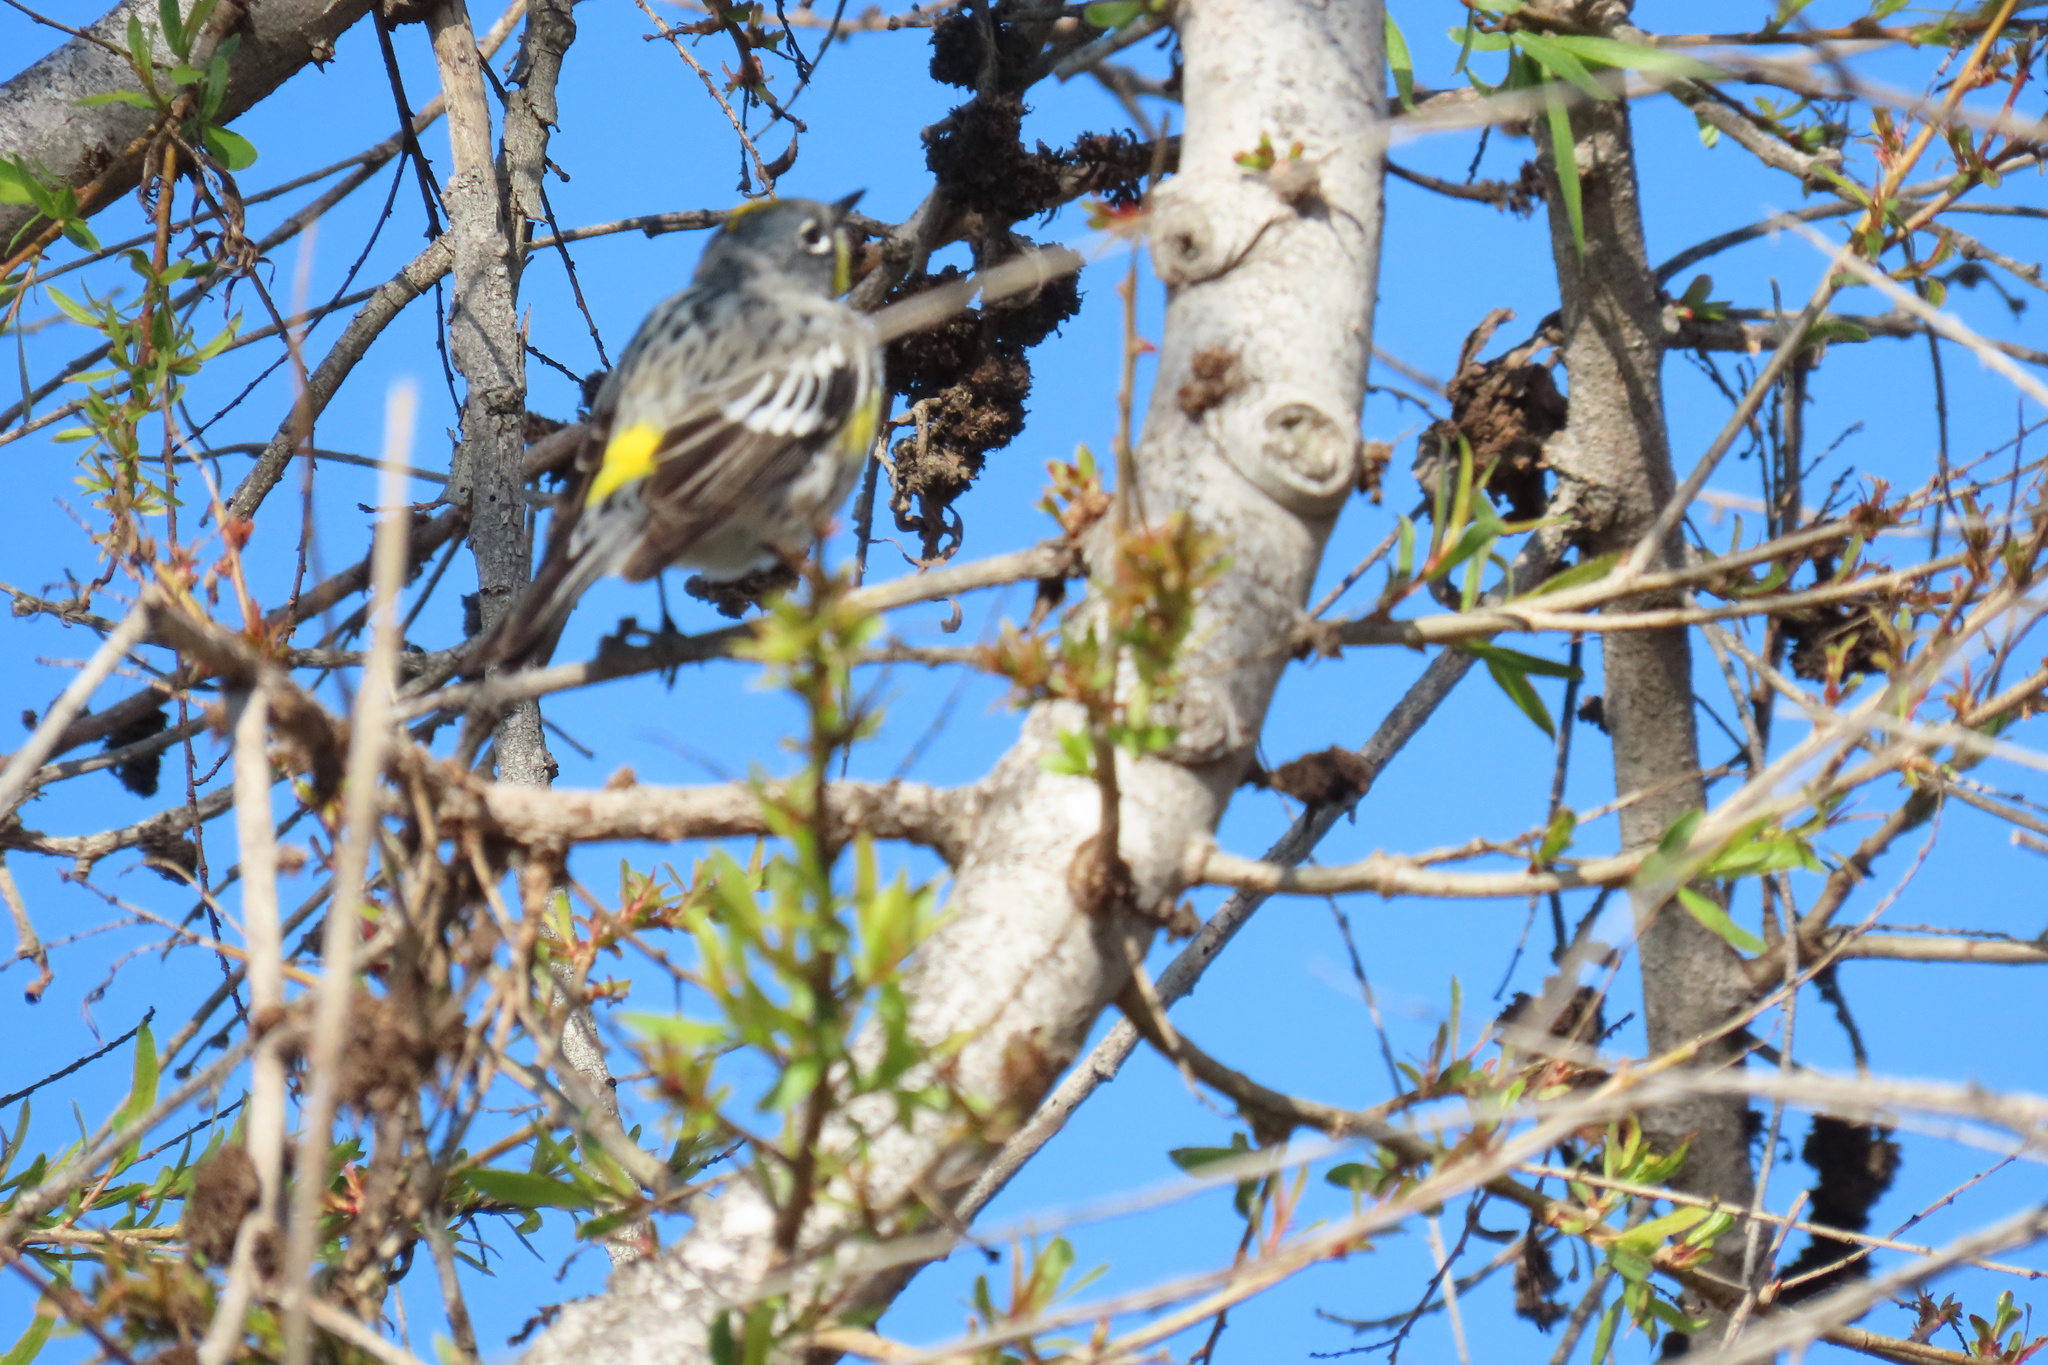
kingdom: Animalia
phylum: Chordata
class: Aves
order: Passeriformes
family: Parulidae
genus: Setophaga
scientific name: Setophaga coronata
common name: Myrtle warbler
